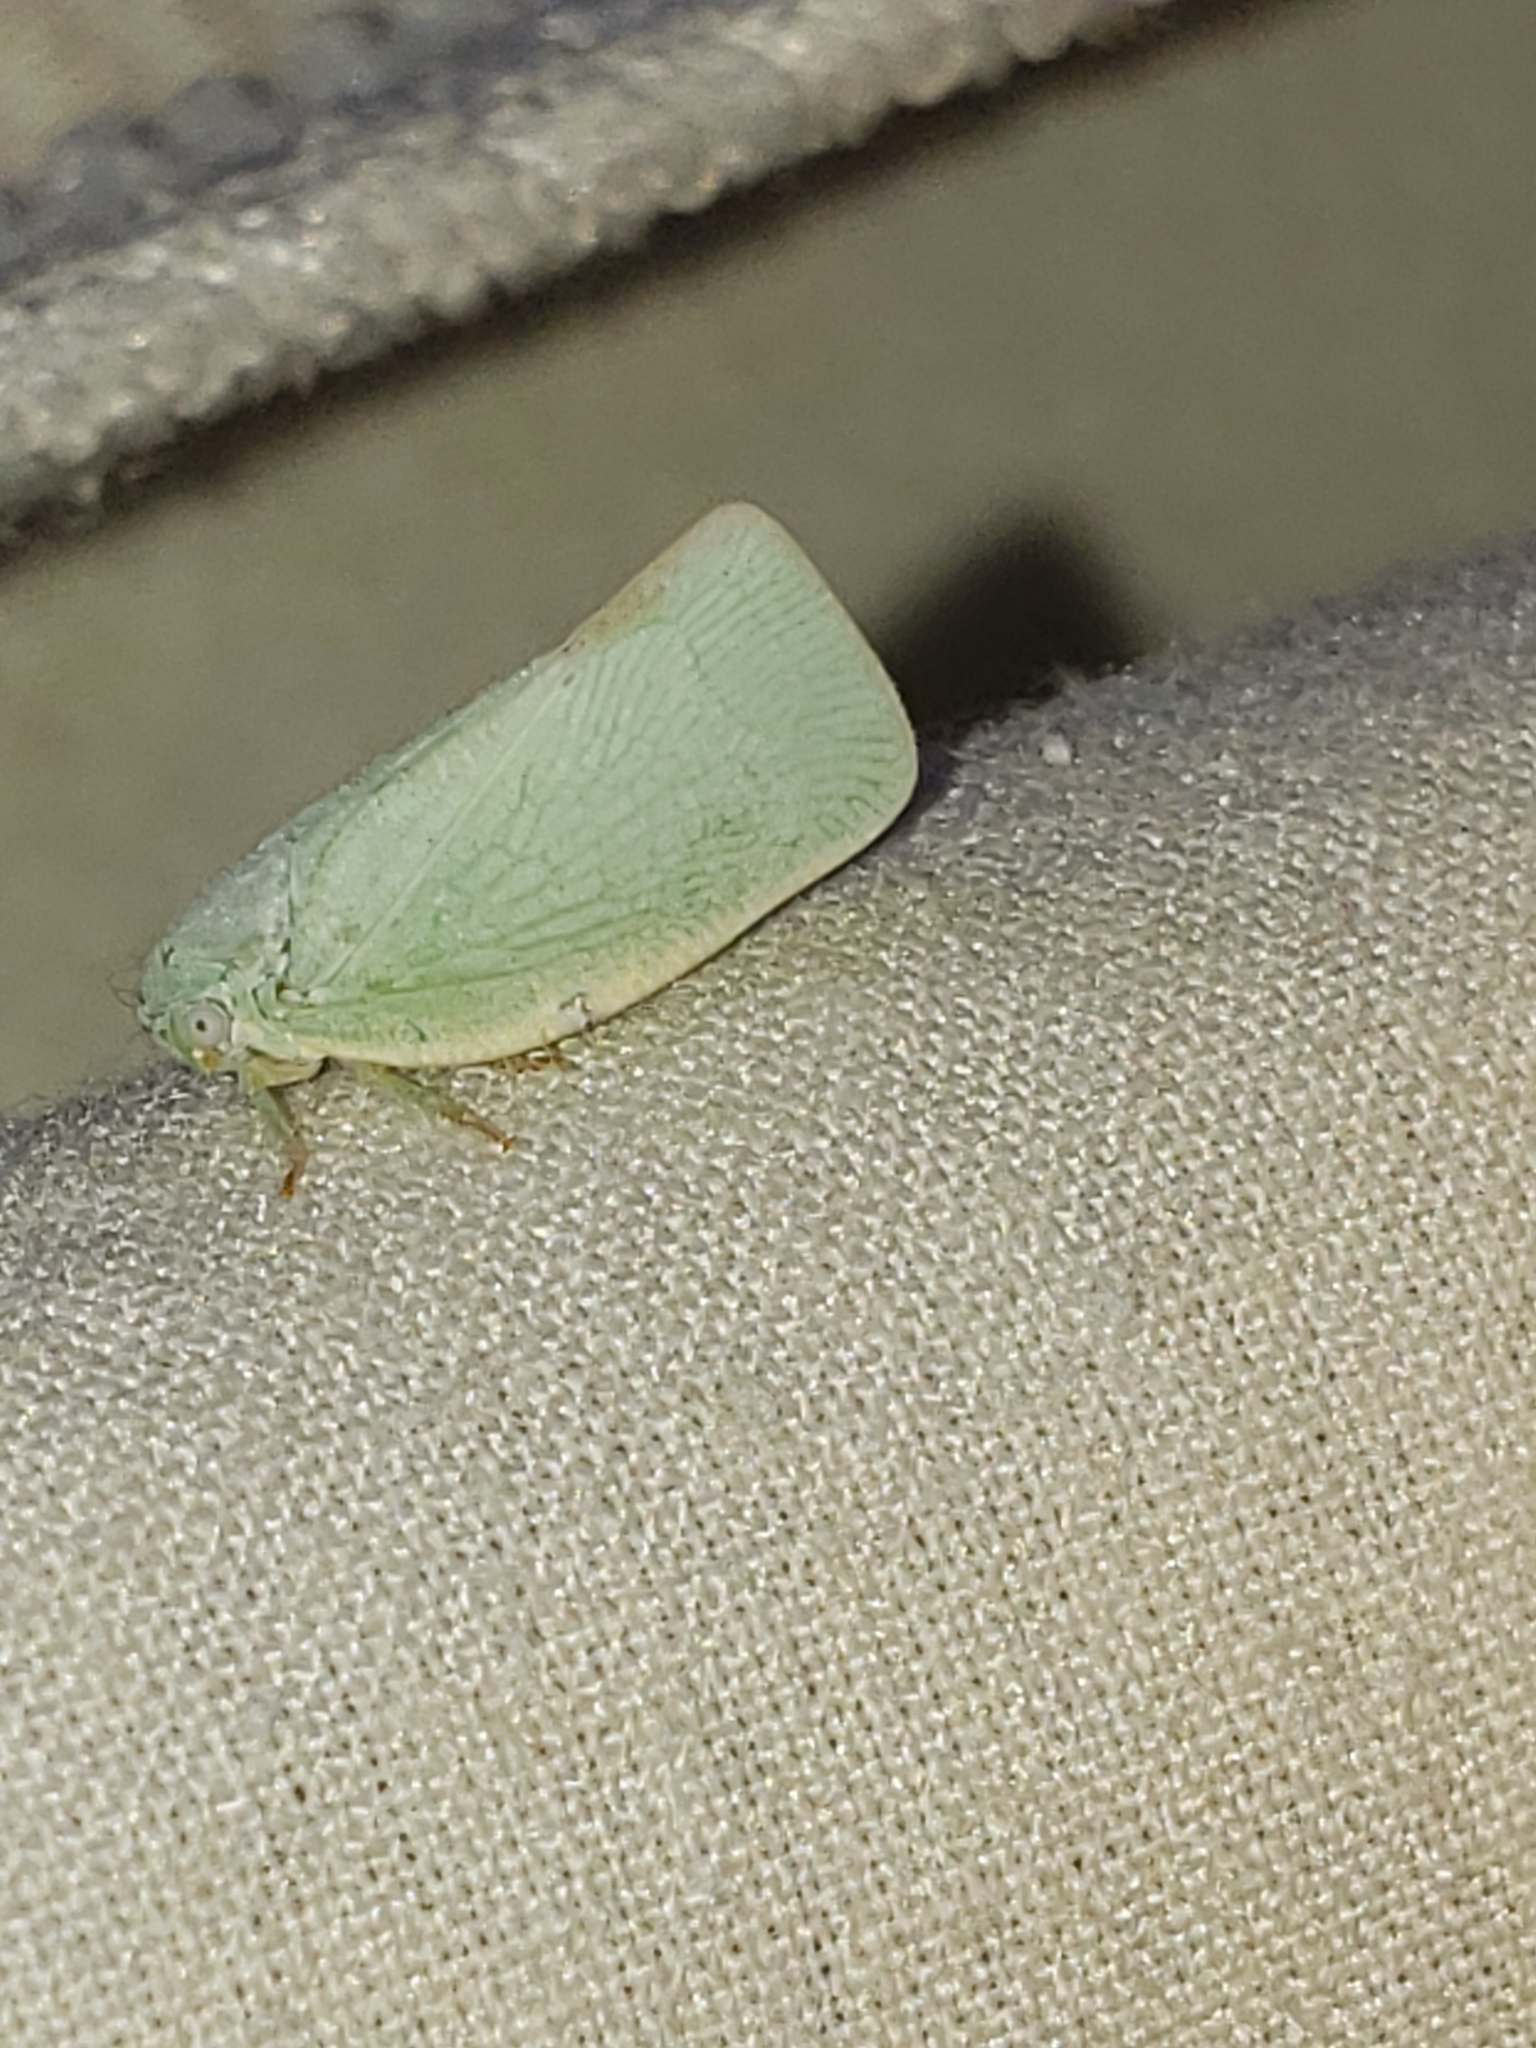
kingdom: Animalia
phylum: Arthropoda
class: Insecta
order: Hemiptera
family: Flatidae
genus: Flatormenis
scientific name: Flatormenis proxima
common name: Northern flatid planthopper
